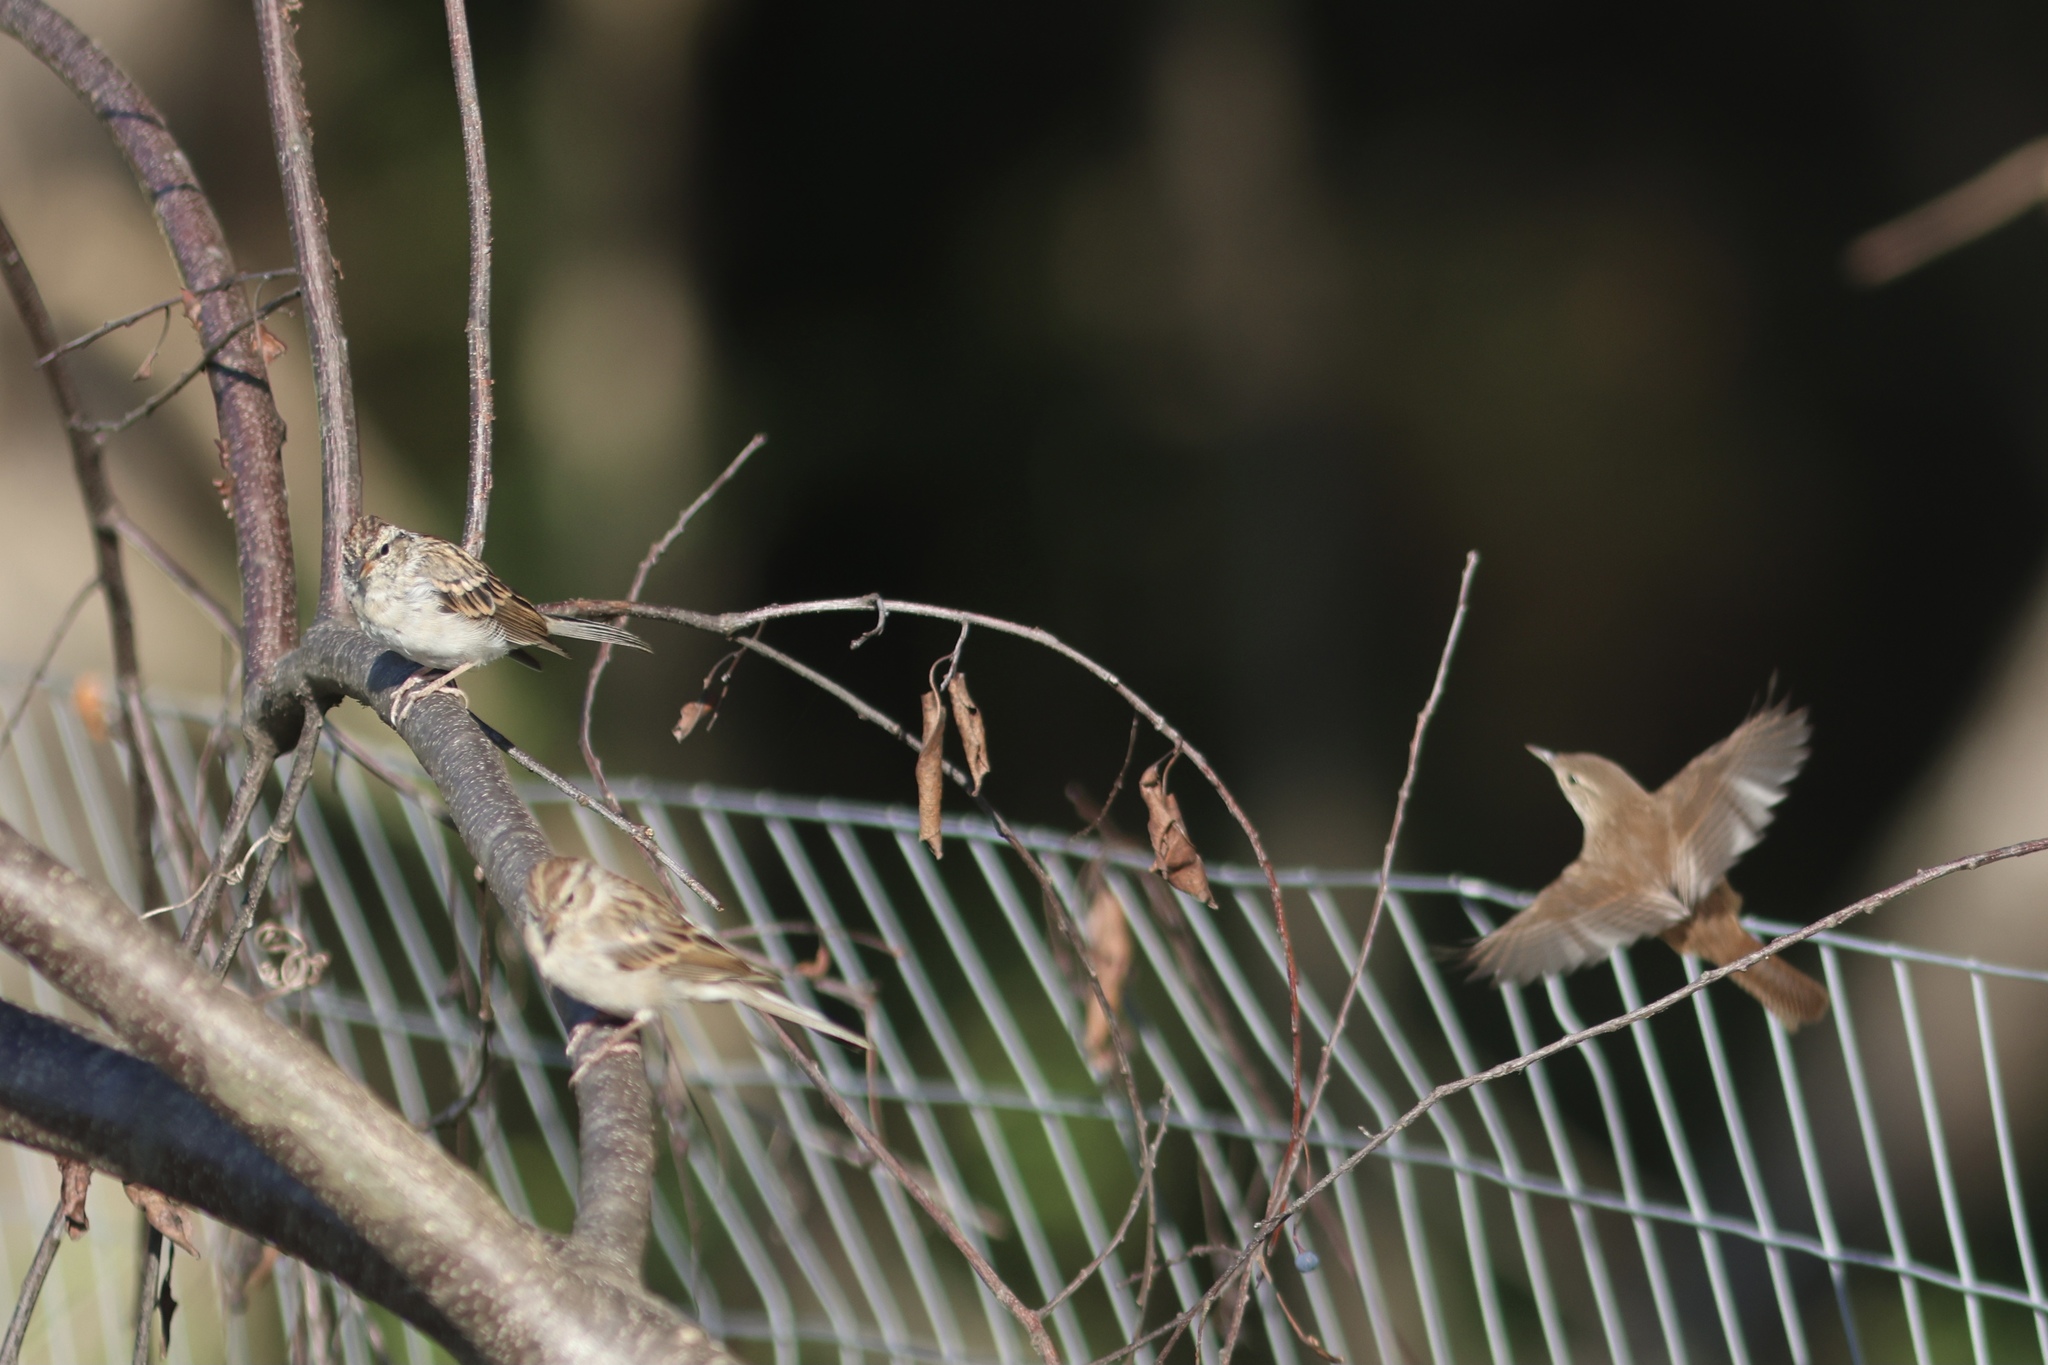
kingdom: Animalia
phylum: Chordata
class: Aves
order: Passeriformes
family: Passerellidae
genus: Spizella
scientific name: Spizella passerina
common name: Chipping sparrow
